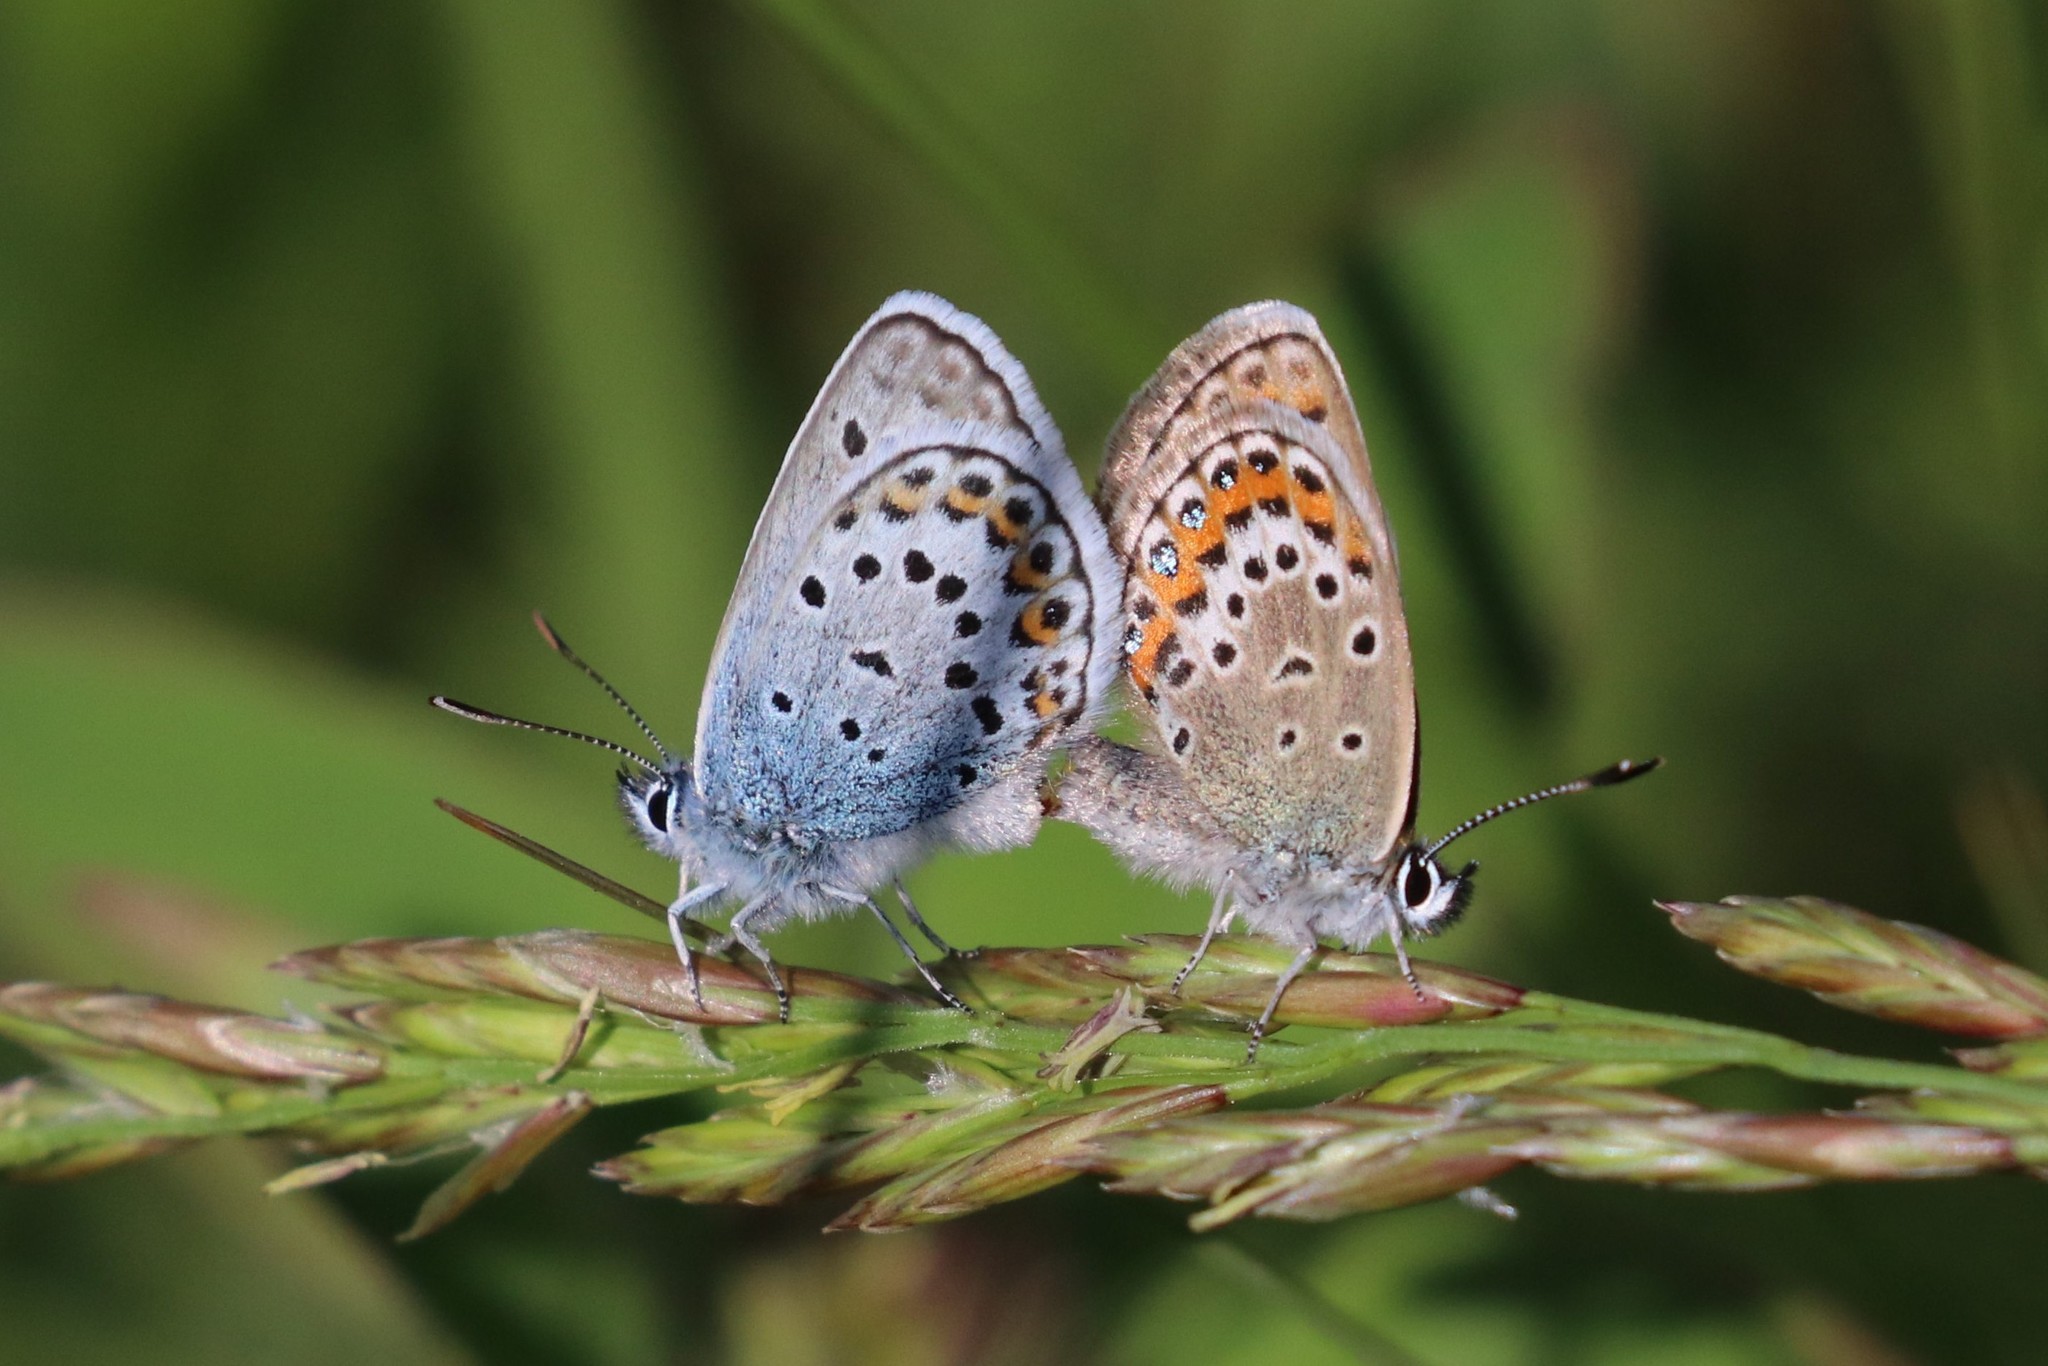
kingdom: Animalia
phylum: Arthropoda
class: Insecta
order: Lepidoptera
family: Lycaenidae
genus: Plebejus
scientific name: Plebejus argus
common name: Silver-studded blue
